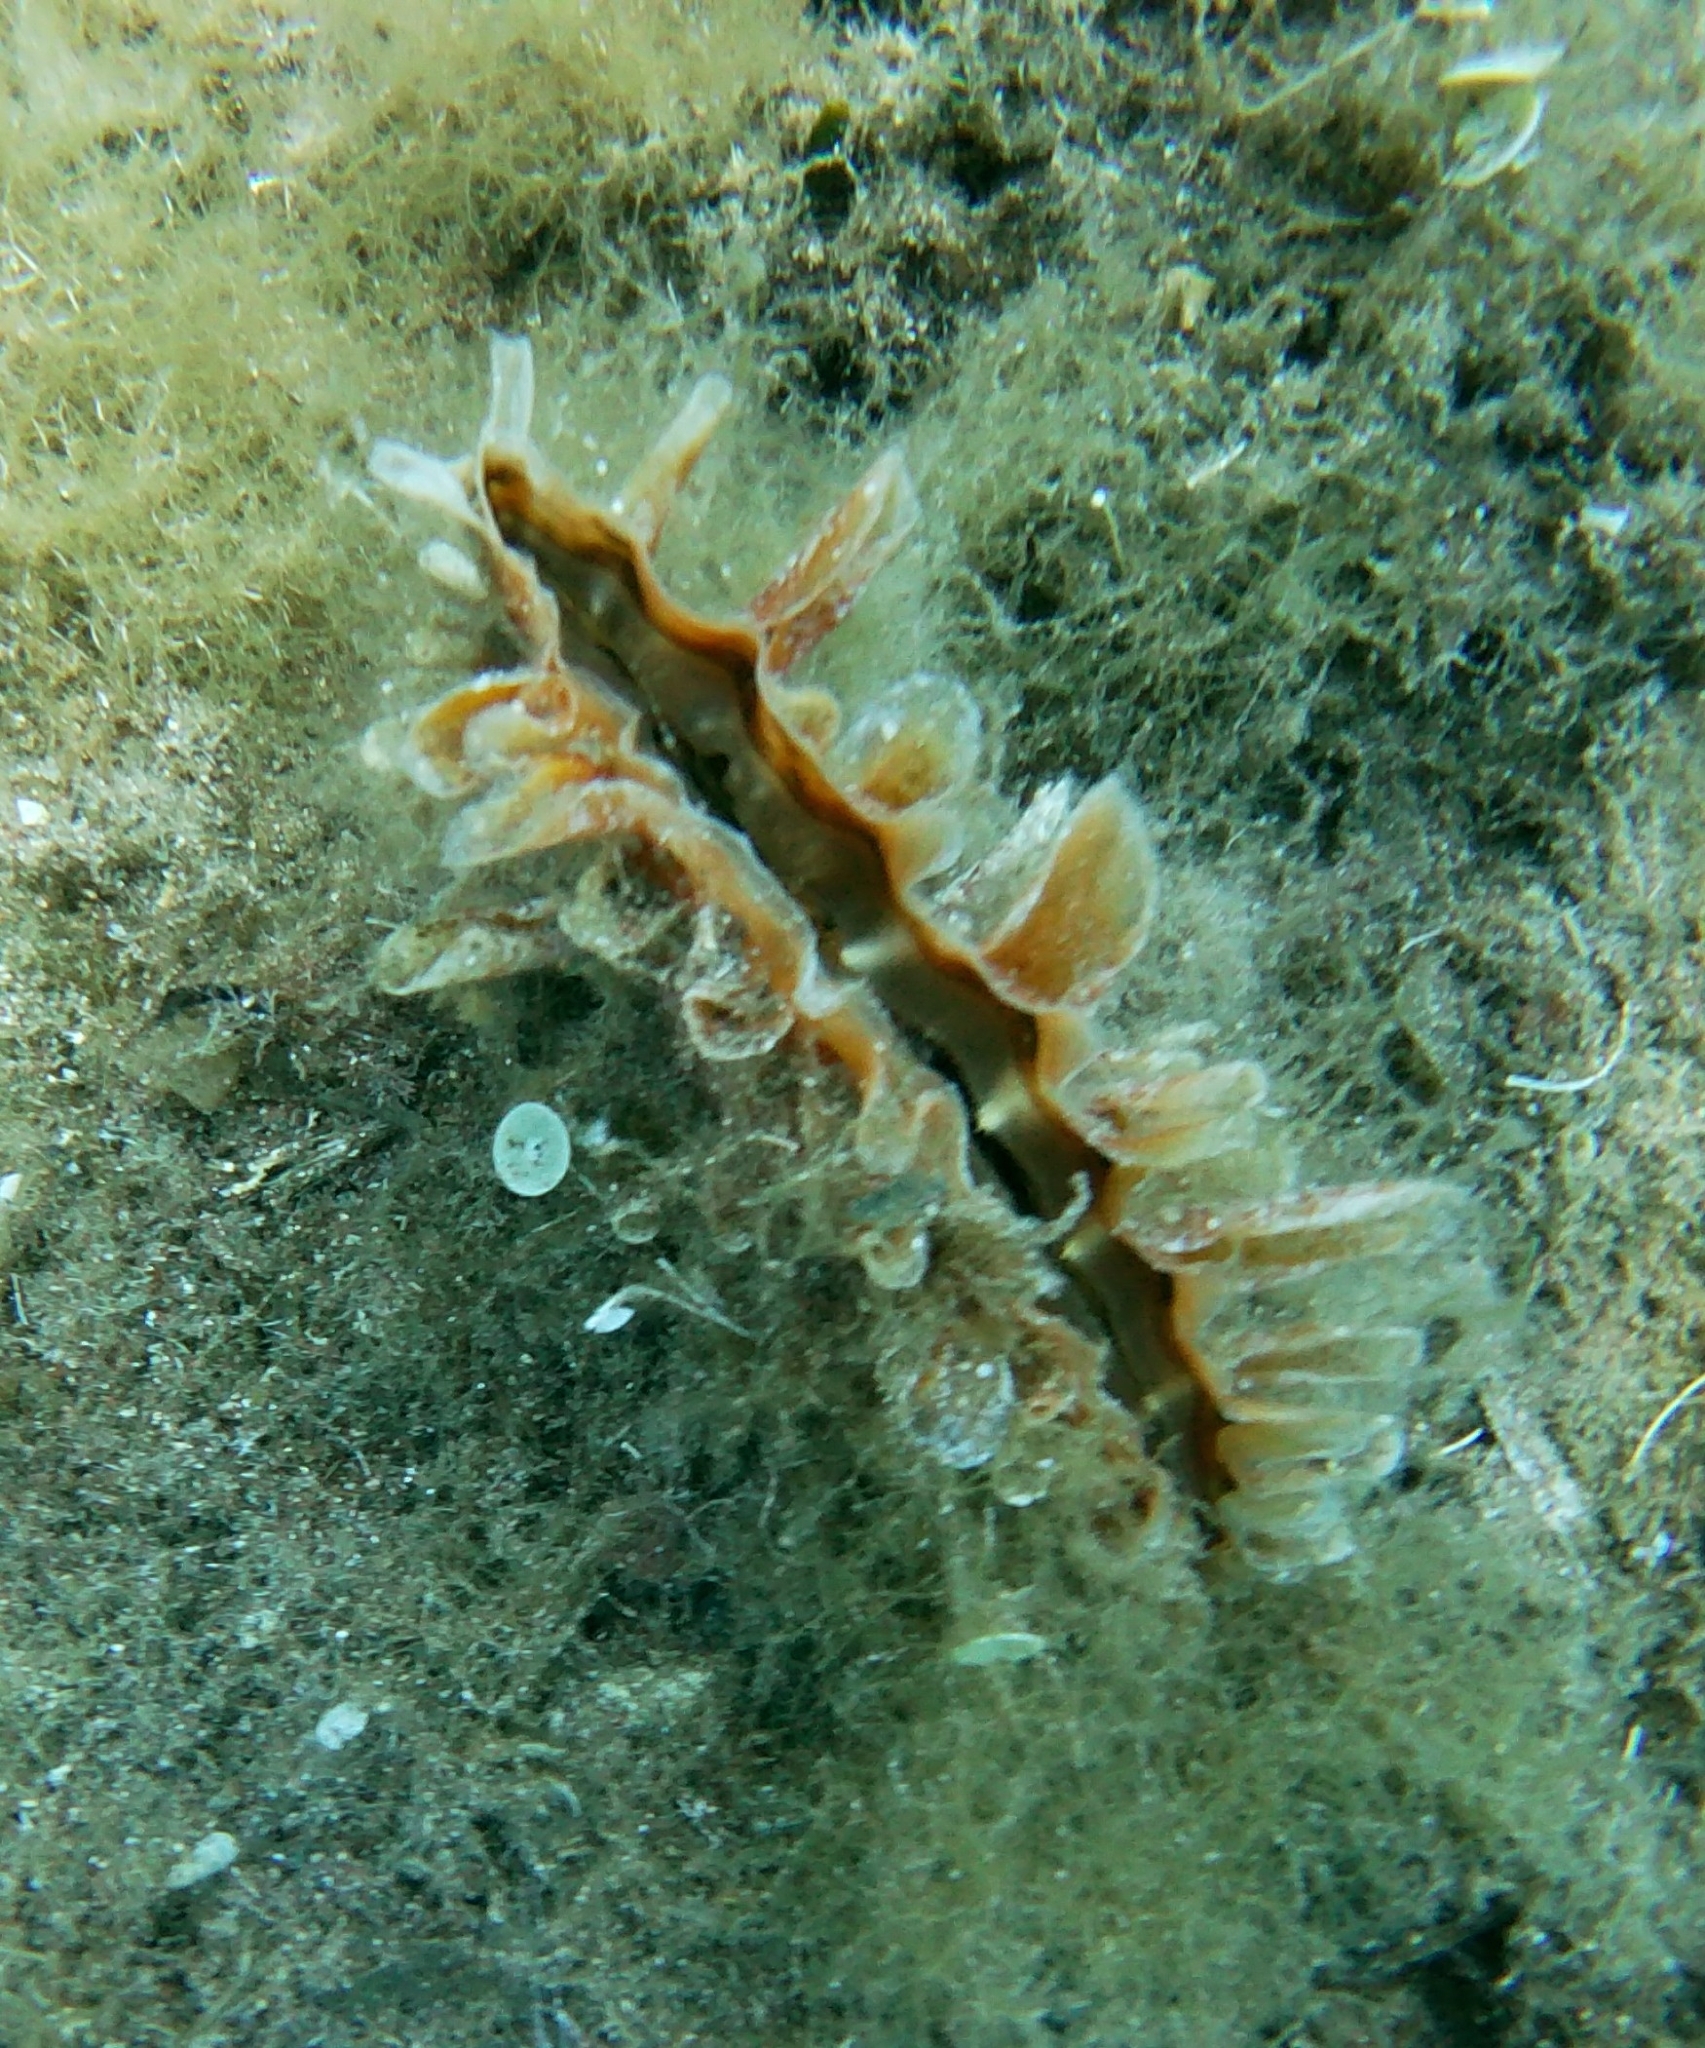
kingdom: Animalia
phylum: Mollusca
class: Bivalvia
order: Ostreida
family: Pinnidae
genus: Pinna
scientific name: Pinna rudis
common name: Rough penshell
